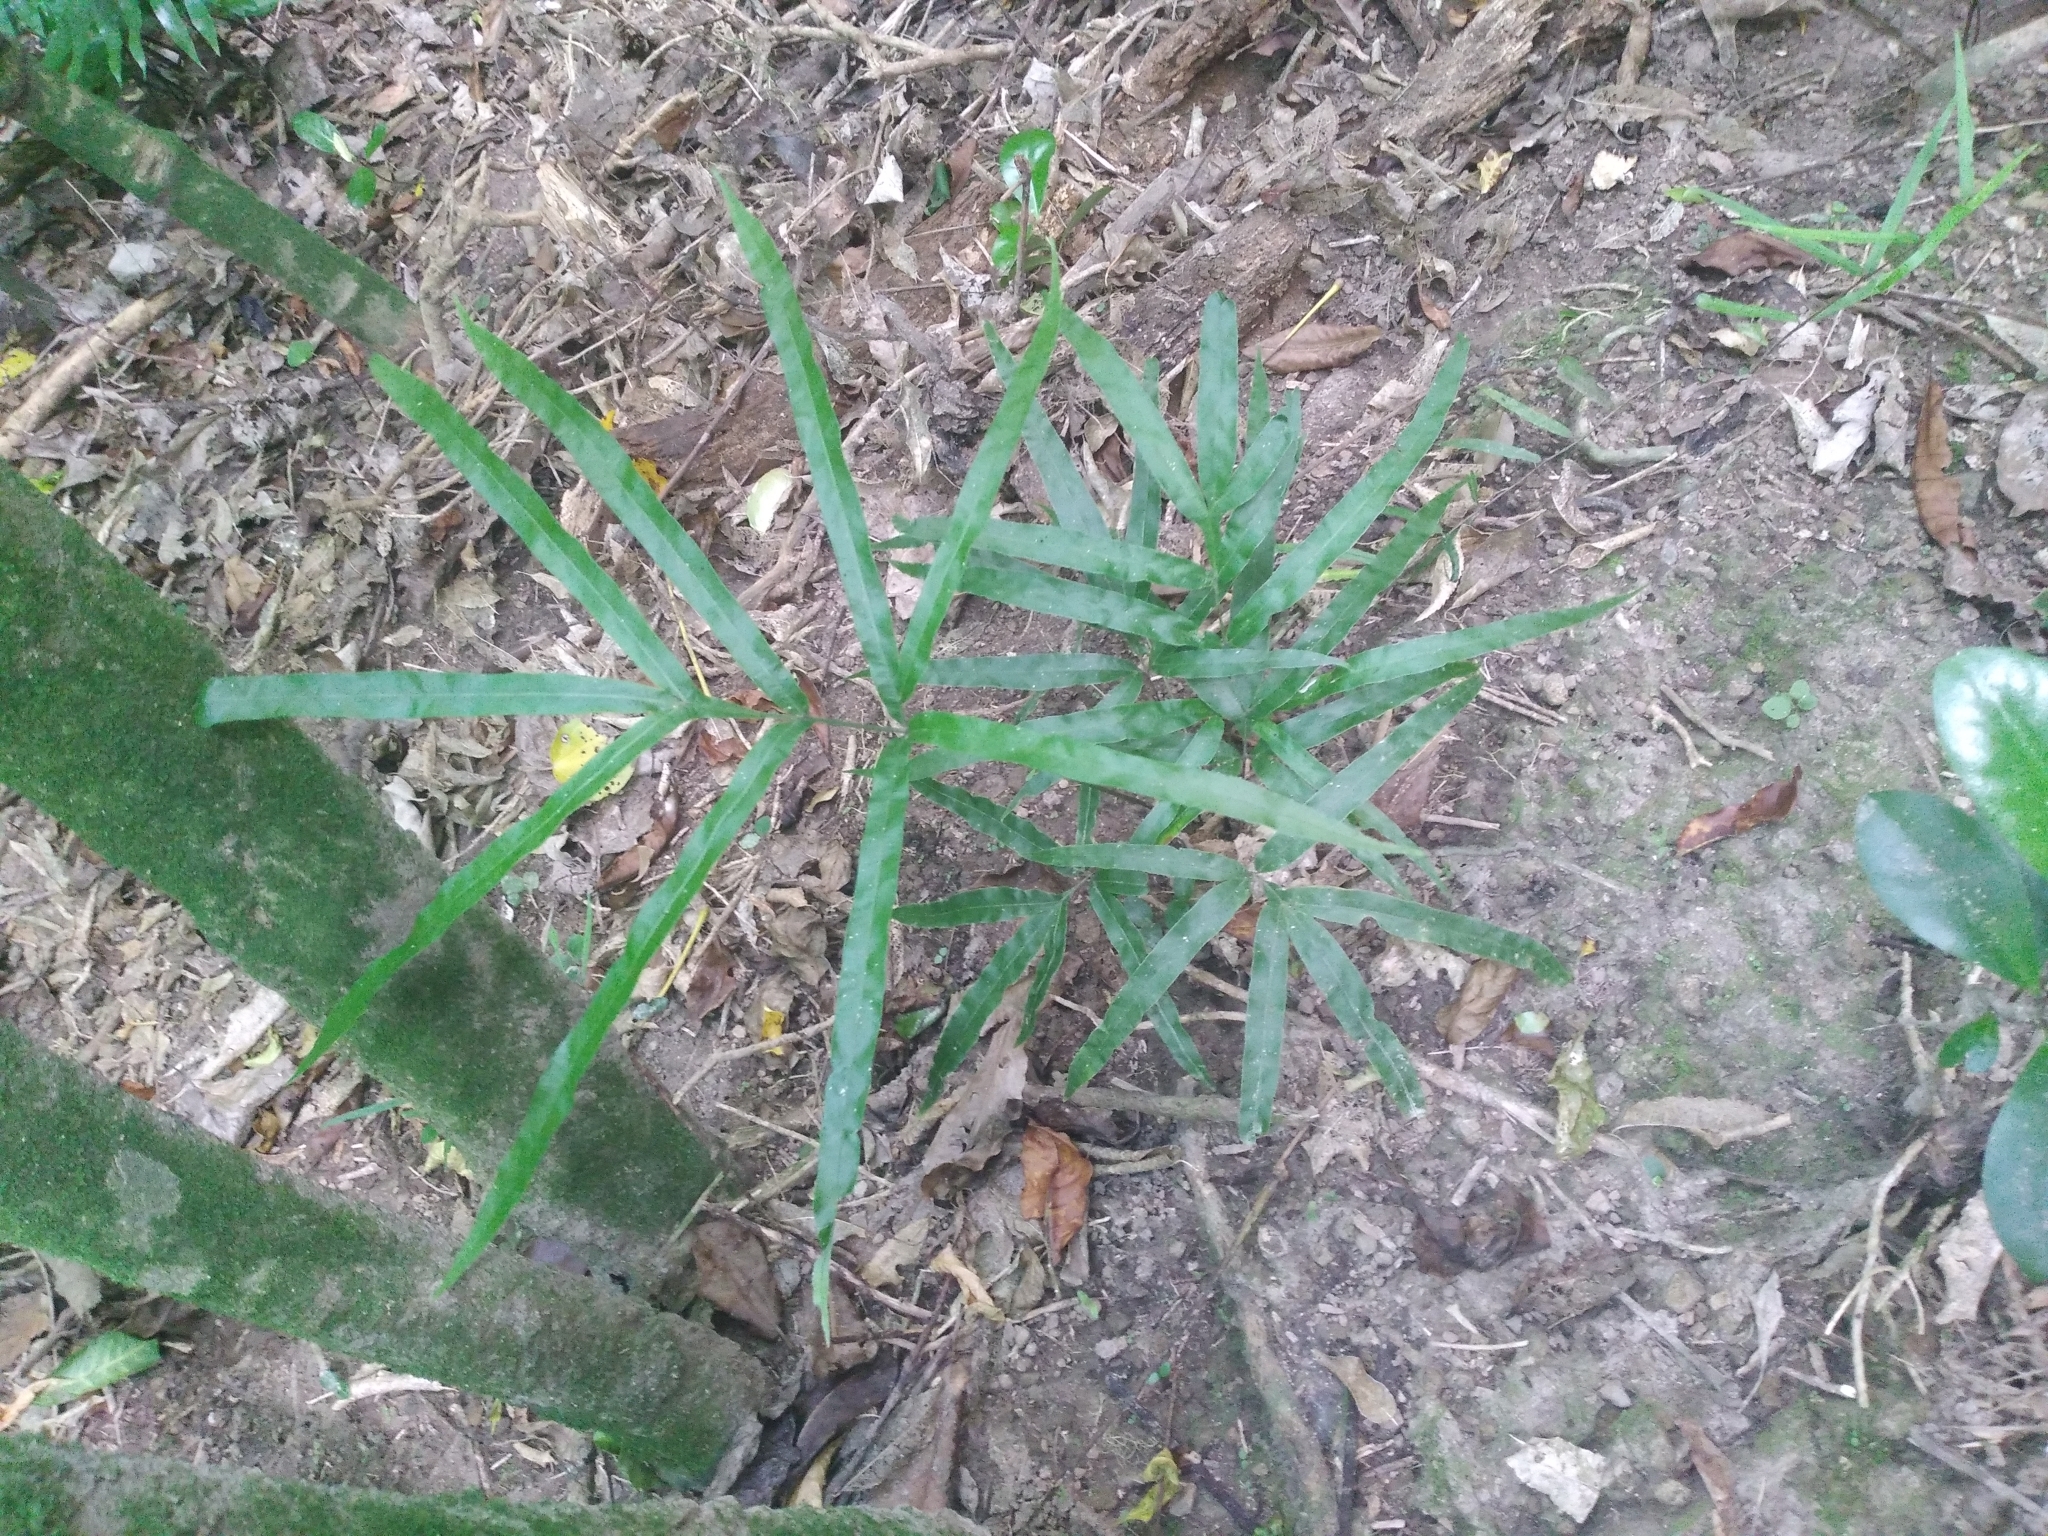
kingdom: Plantae
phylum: Tracheophyta
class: Polypodiopsida
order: Polypodiales
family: Pteridaceae
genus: Pteris
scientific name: Pteris cretica
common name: Ribbon fern
